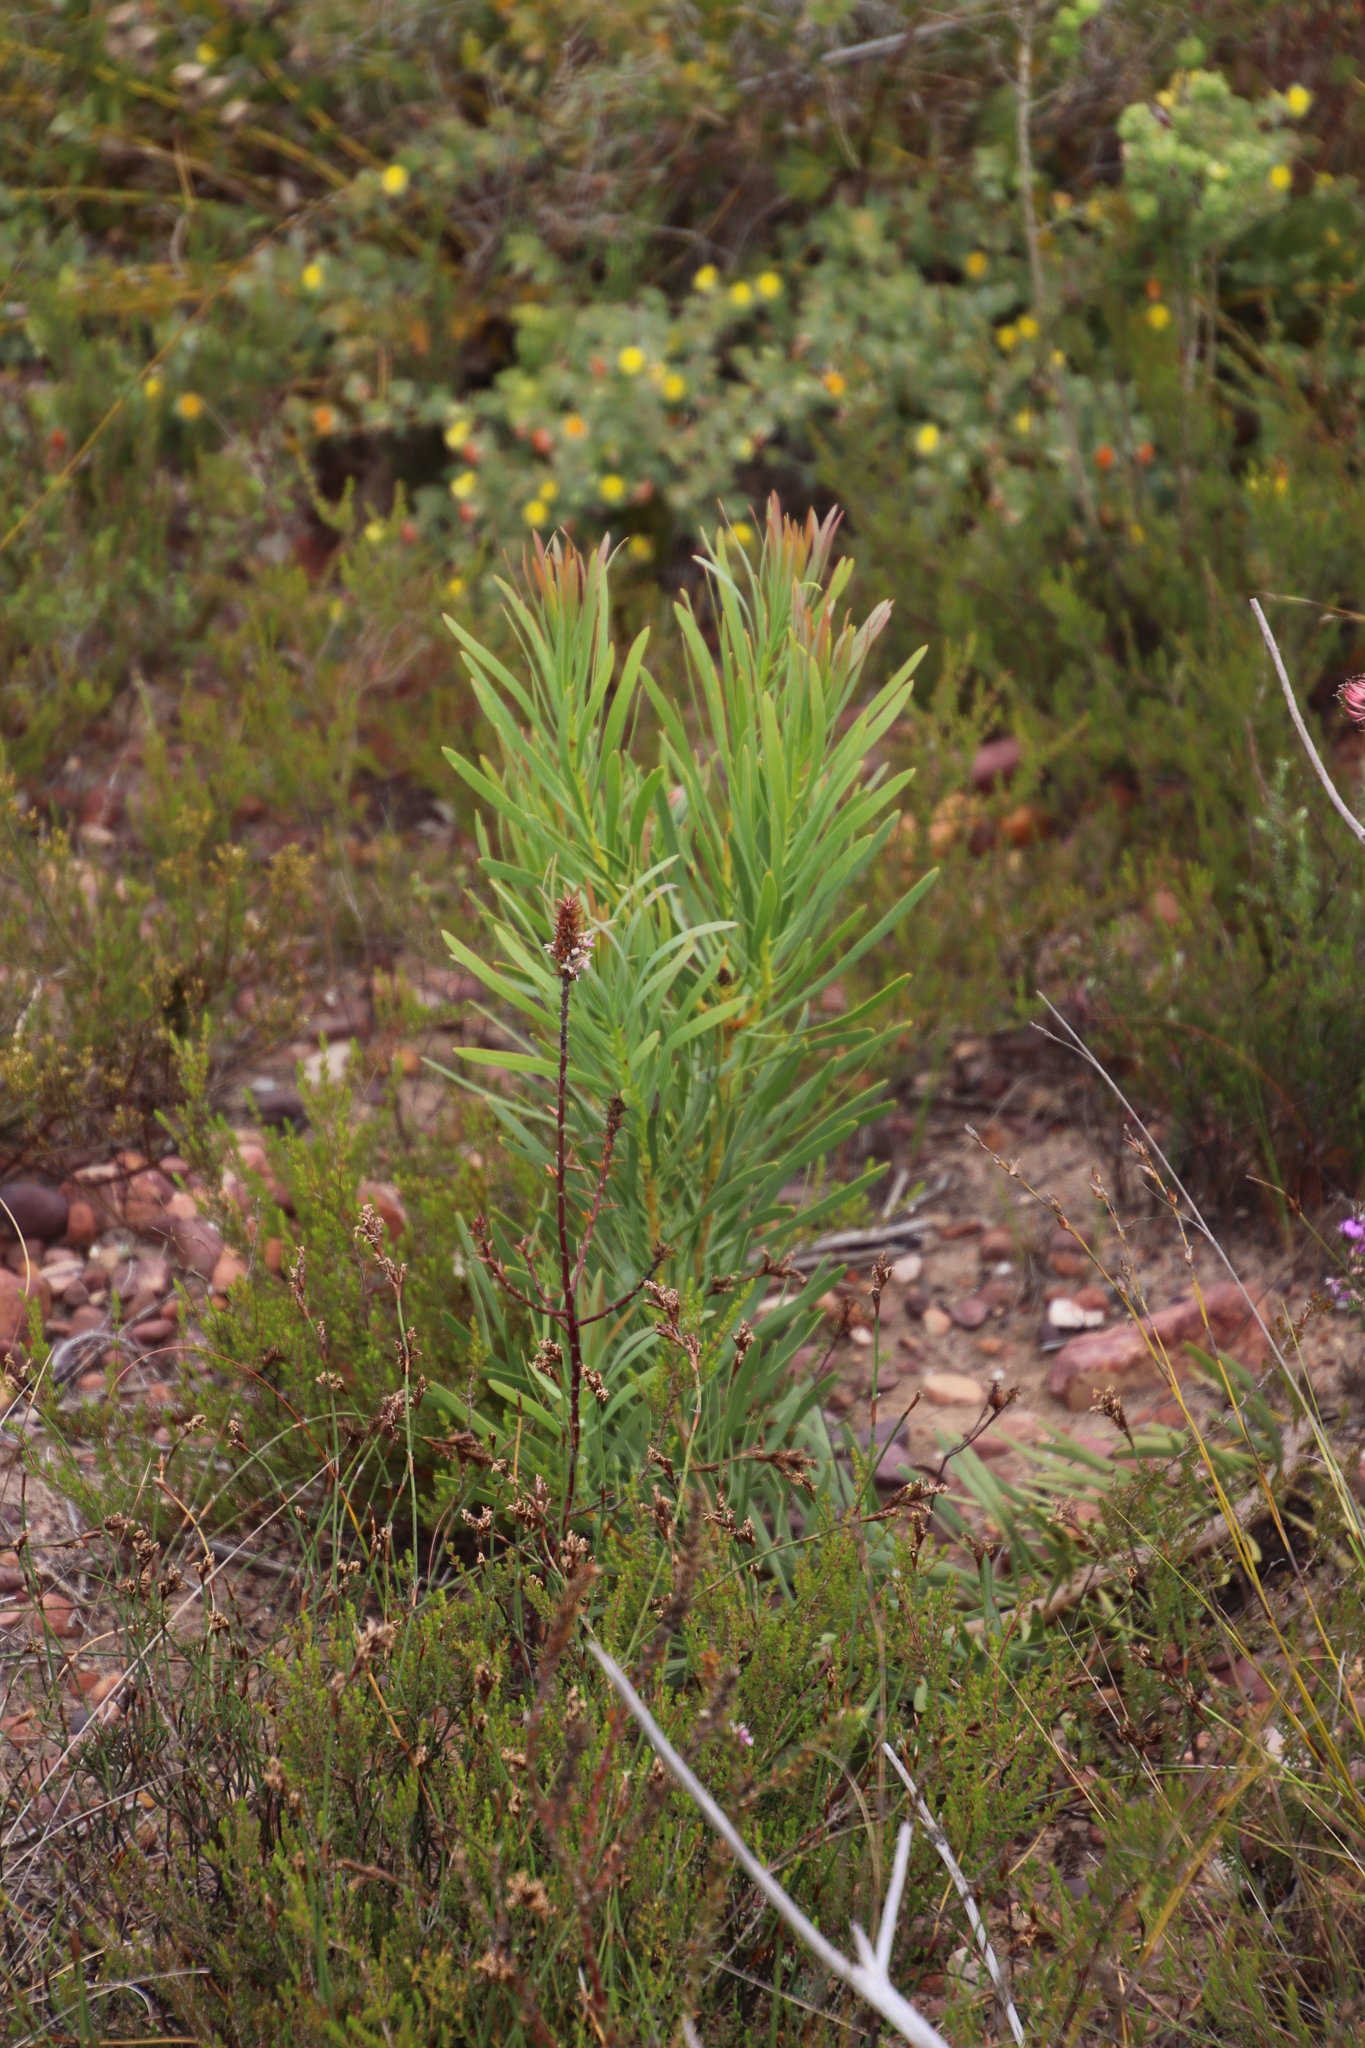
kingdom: Plantae
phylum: Tracheophyta
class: Magnoliopsida
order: Proteales
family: Proteaceae
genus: Protea
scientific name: Protea repens
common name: Sugarbush
